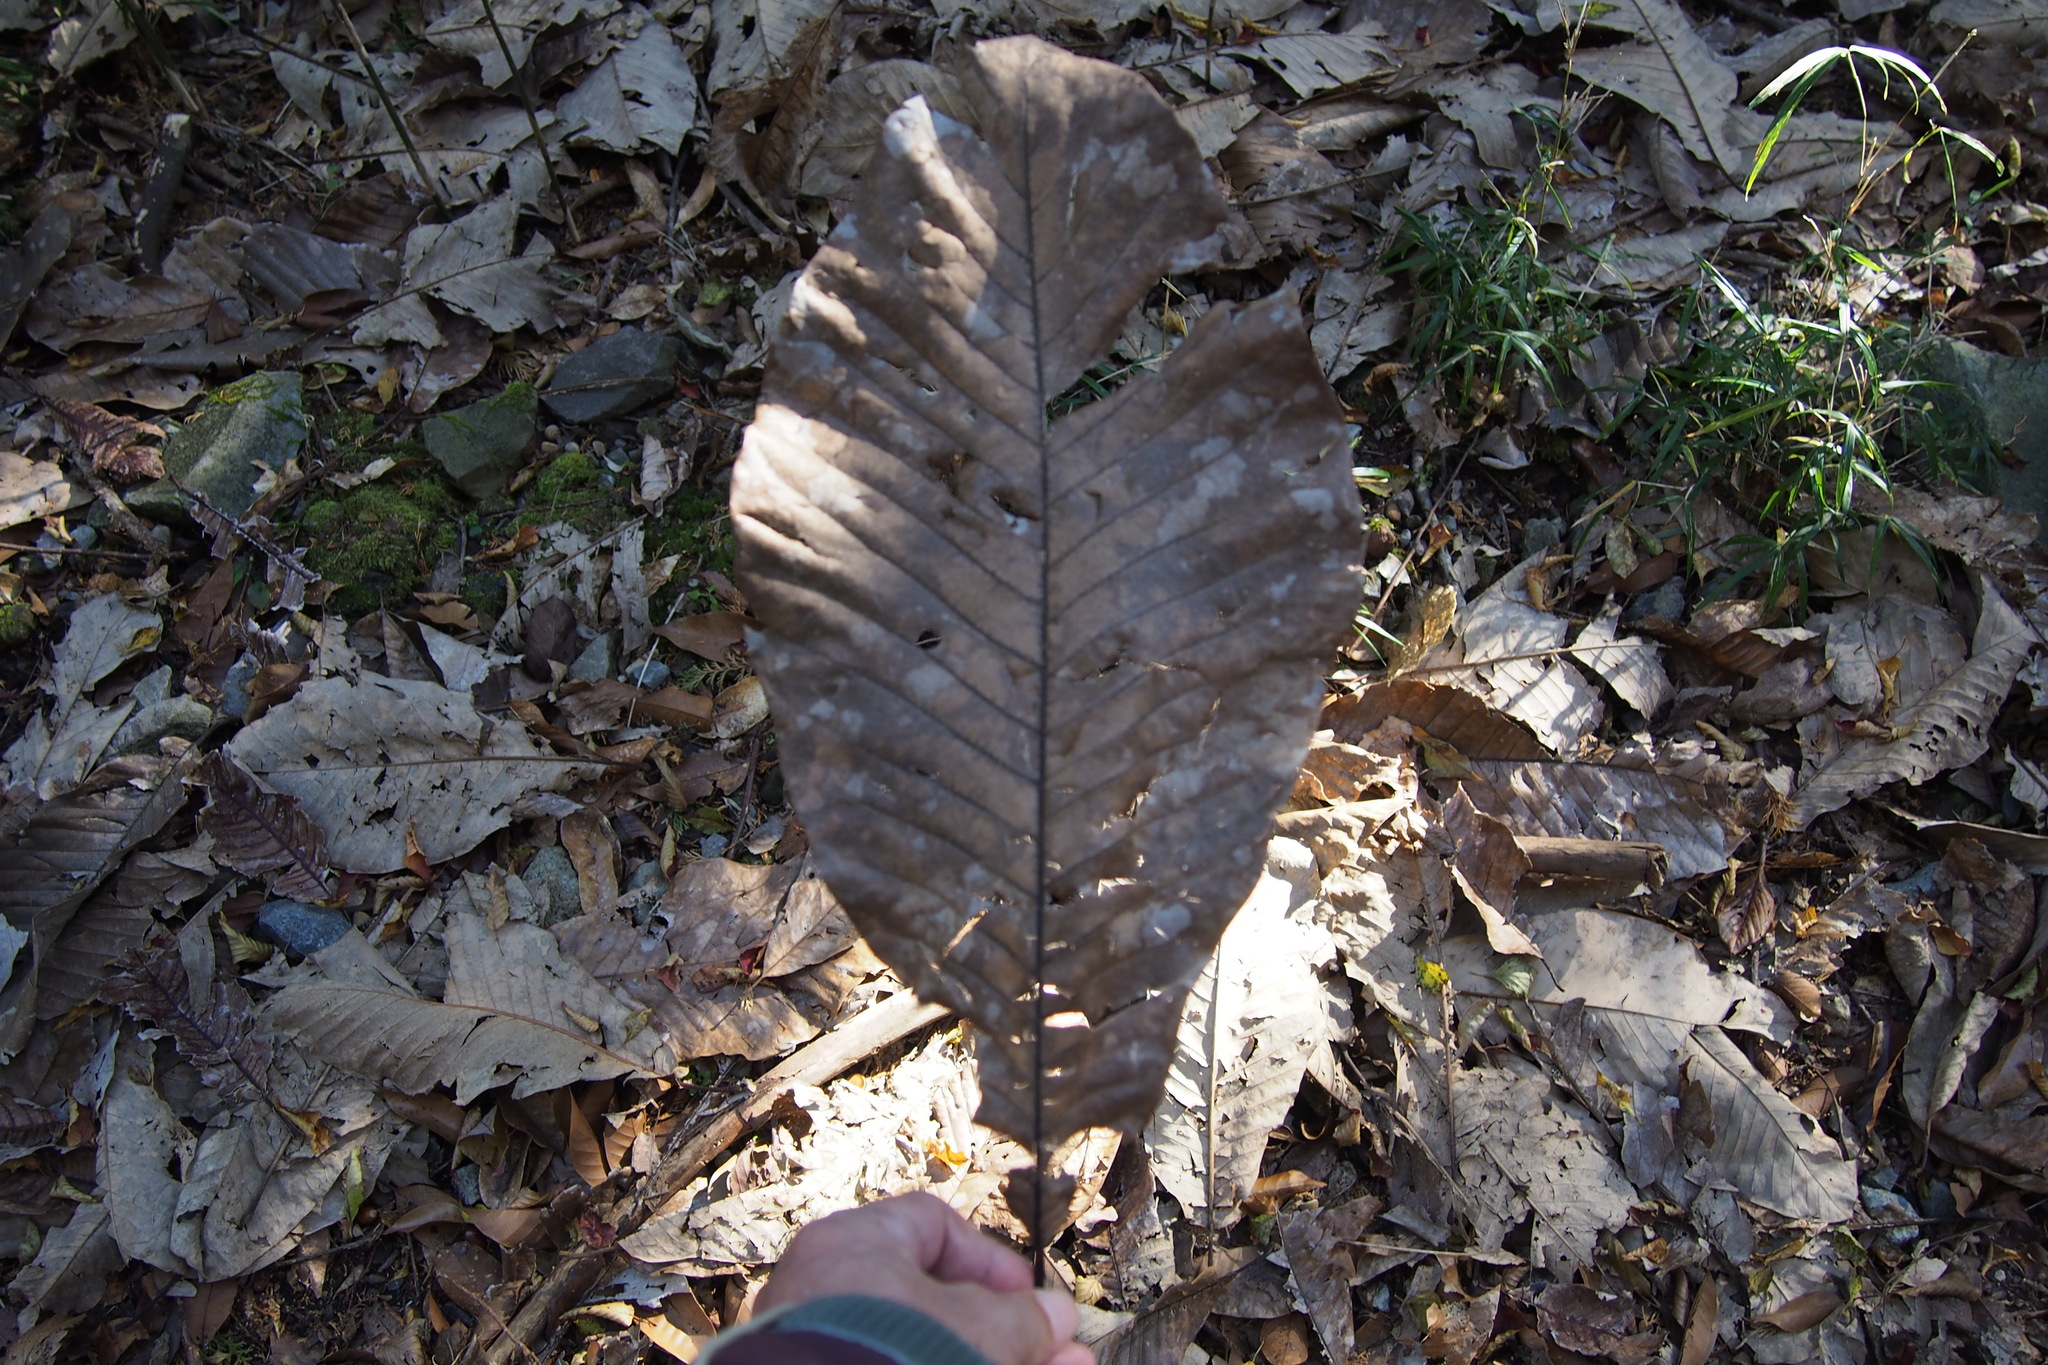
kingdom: Plantae
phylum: Tracheophyta
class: Magnoliopsida
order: Magnoliales
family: Magnoliaceae
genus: Magnolia
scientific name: Magnolia obovata
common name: Japanese whitebark magnolia
